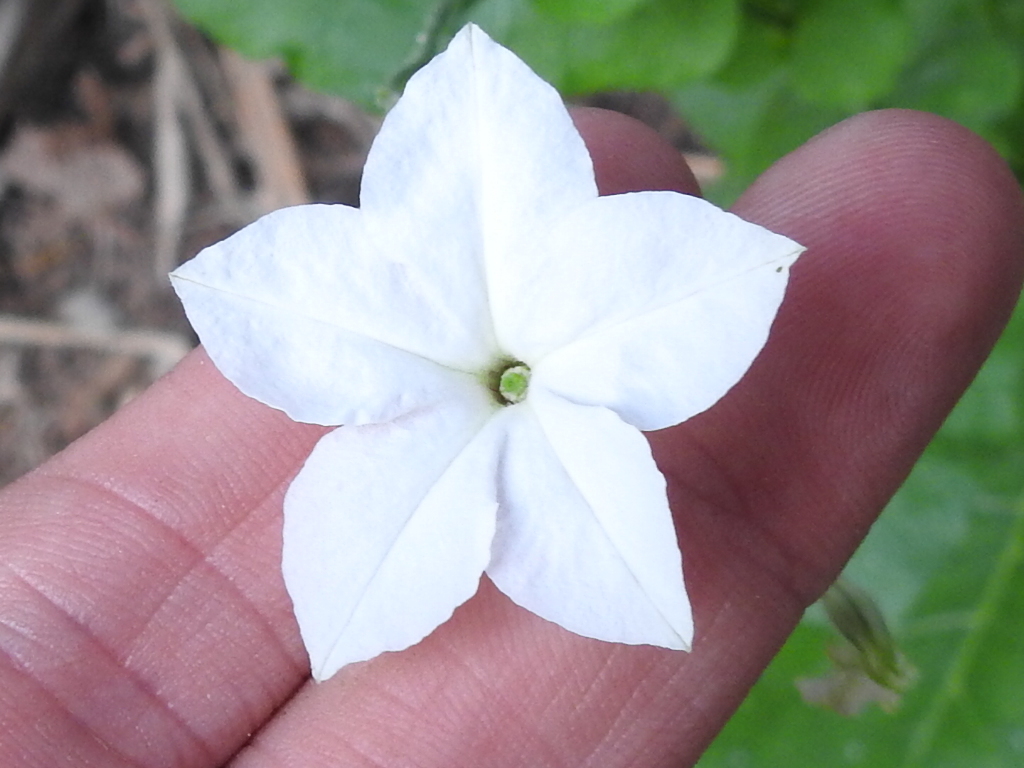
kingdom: Plantae
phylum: Tracheophyta
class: Magnoliopsida
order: Solanales
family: Solanaceae
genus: Nicotiana
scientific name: Nicotiana repanda
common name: Fiddle-leaf tobacco
